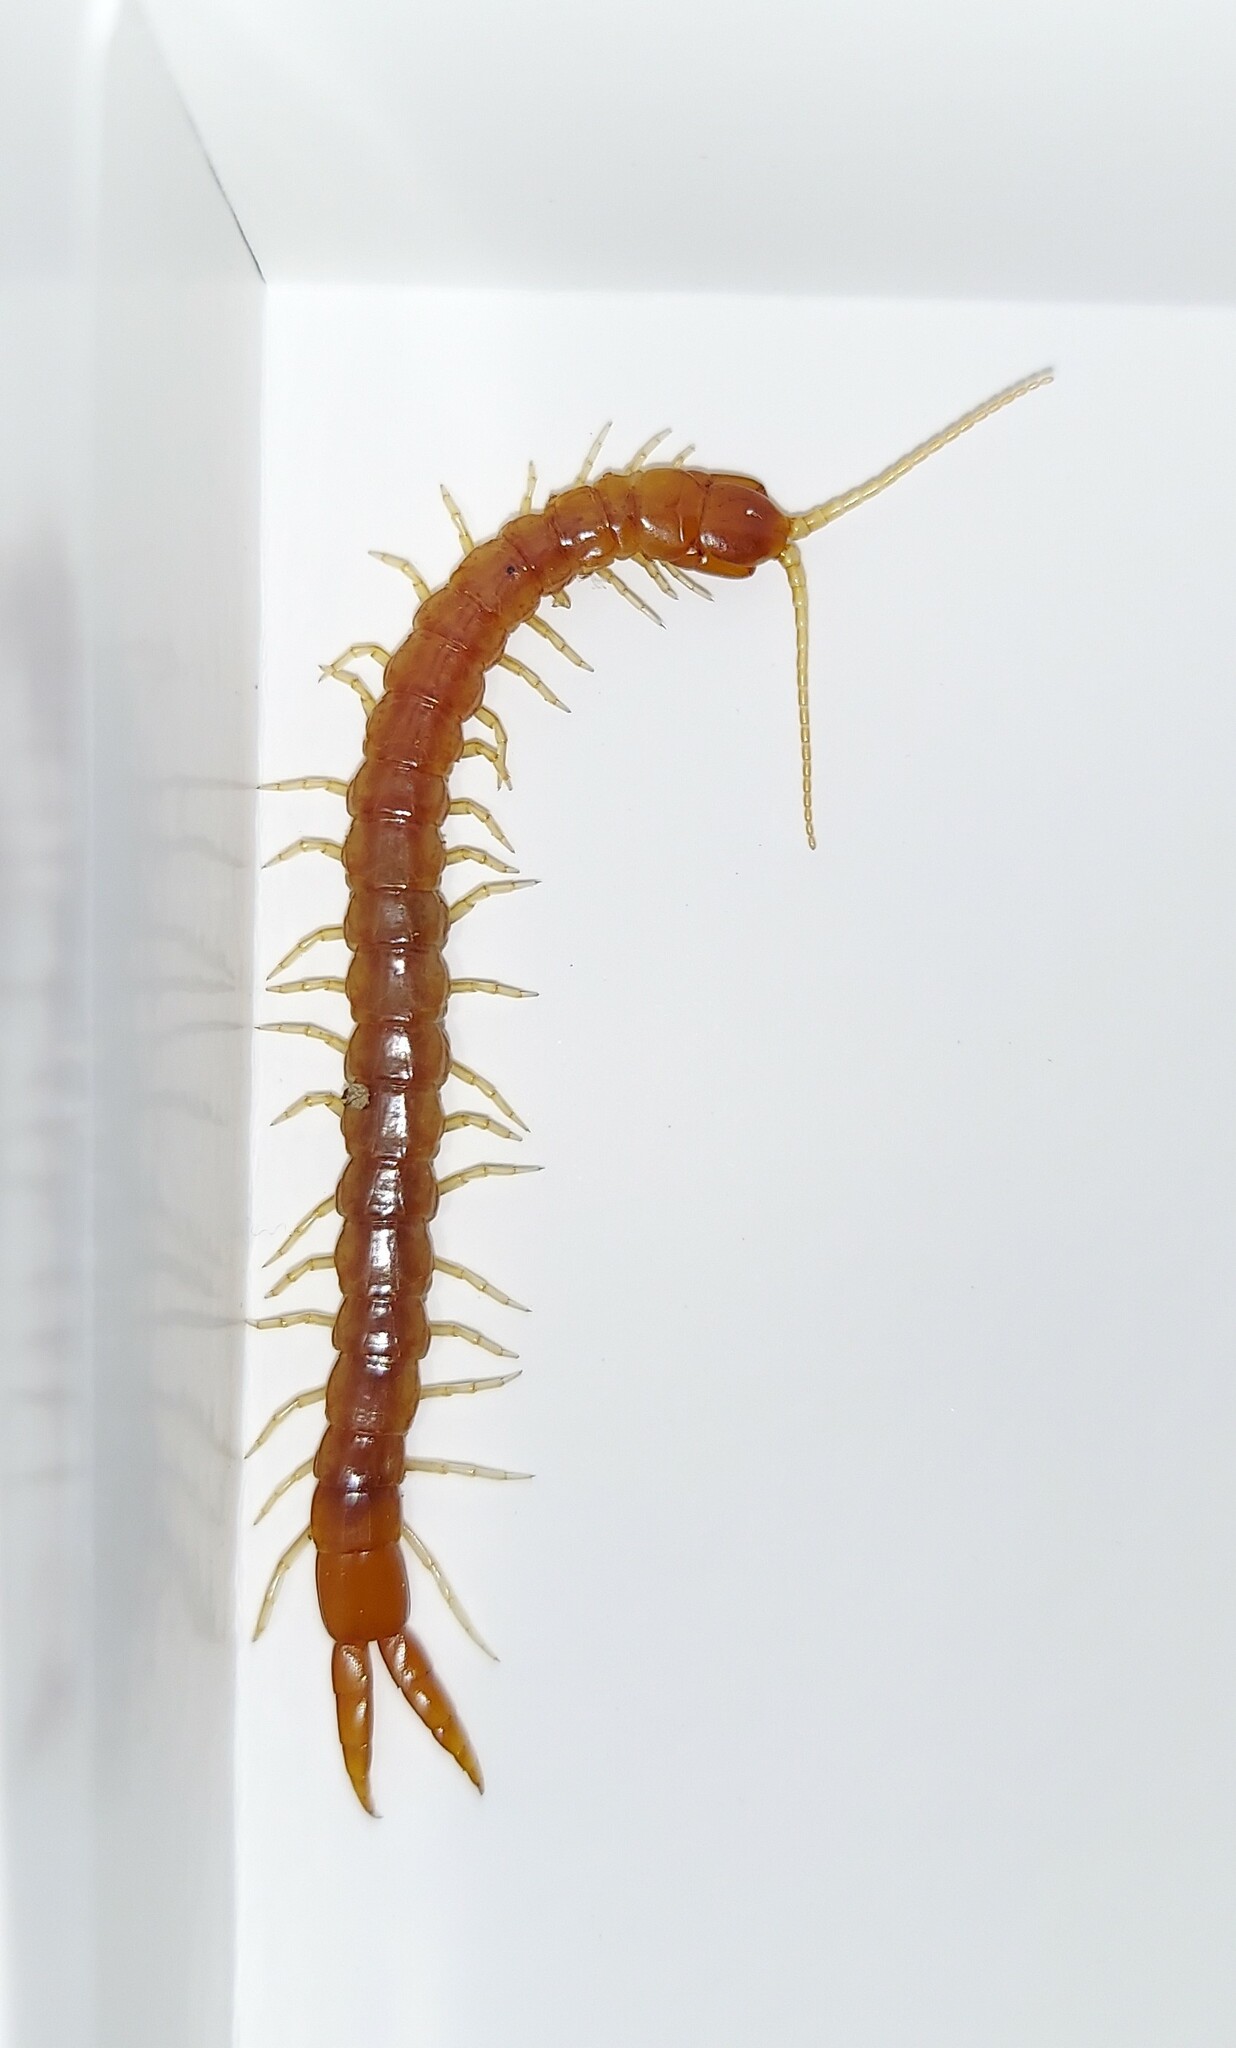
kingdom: Animalia
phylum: Arthropoda
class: Chilopoda
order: Scolopendromorpha
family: Cryptopidae
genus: Theatops
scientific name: Theatops spinicaudus
